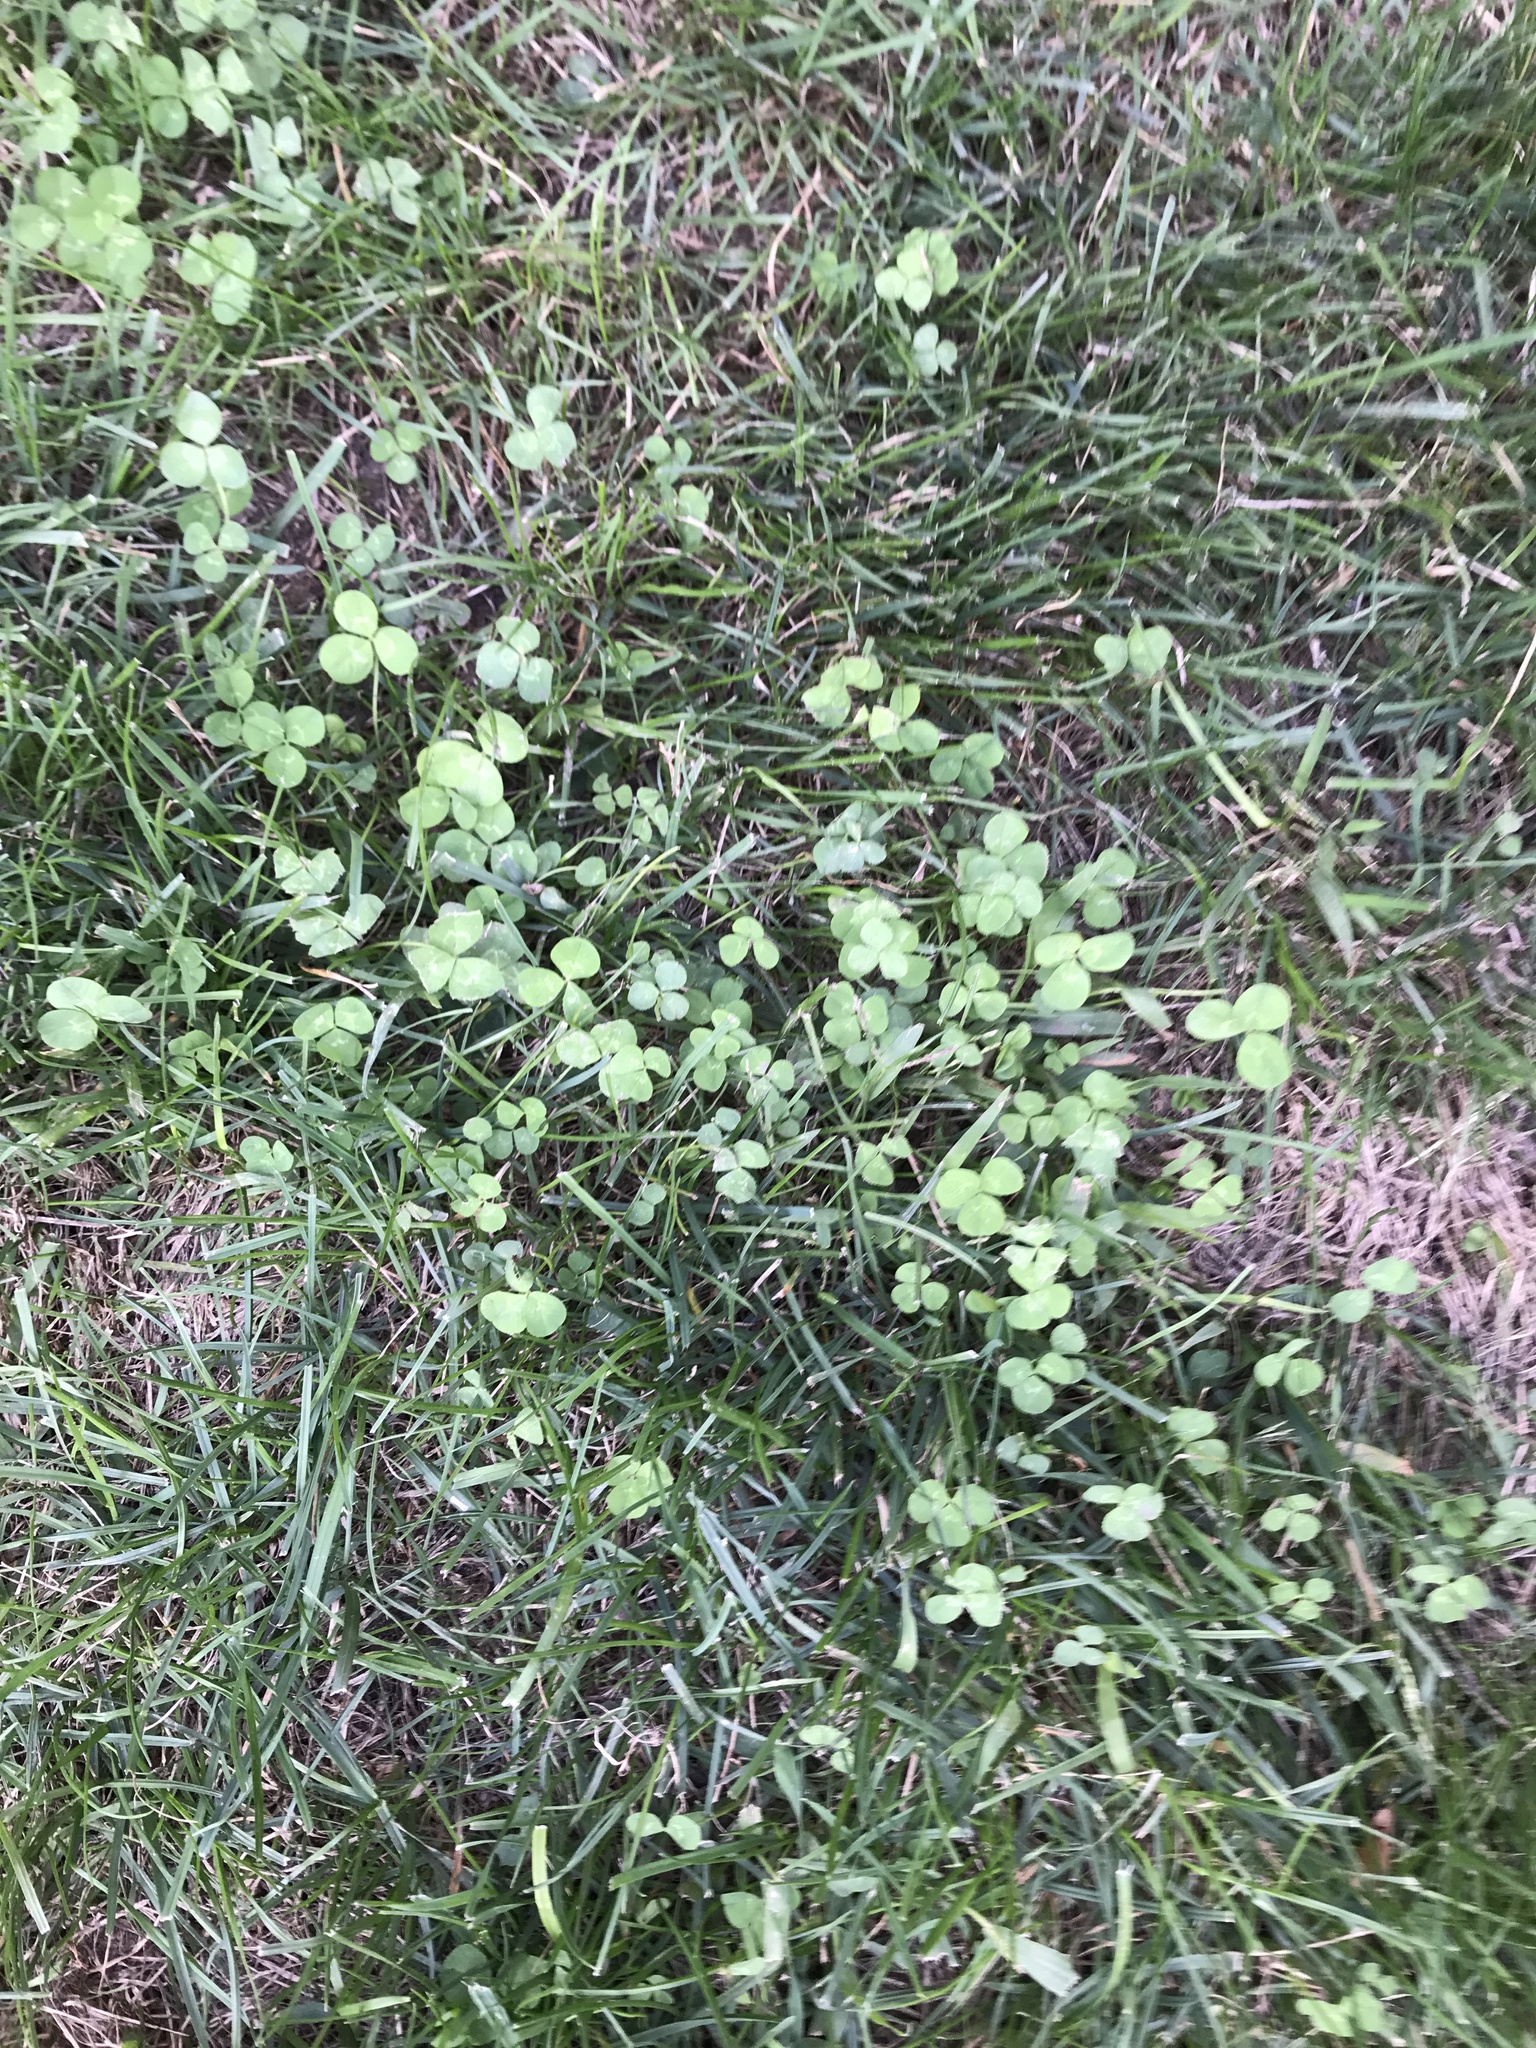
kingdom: Plantae
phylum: Tracheophyta
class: Magnoliopsida
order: Fabales
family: Fabaceae
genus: Trifolium
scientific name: Trifolium repens
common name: White clover
